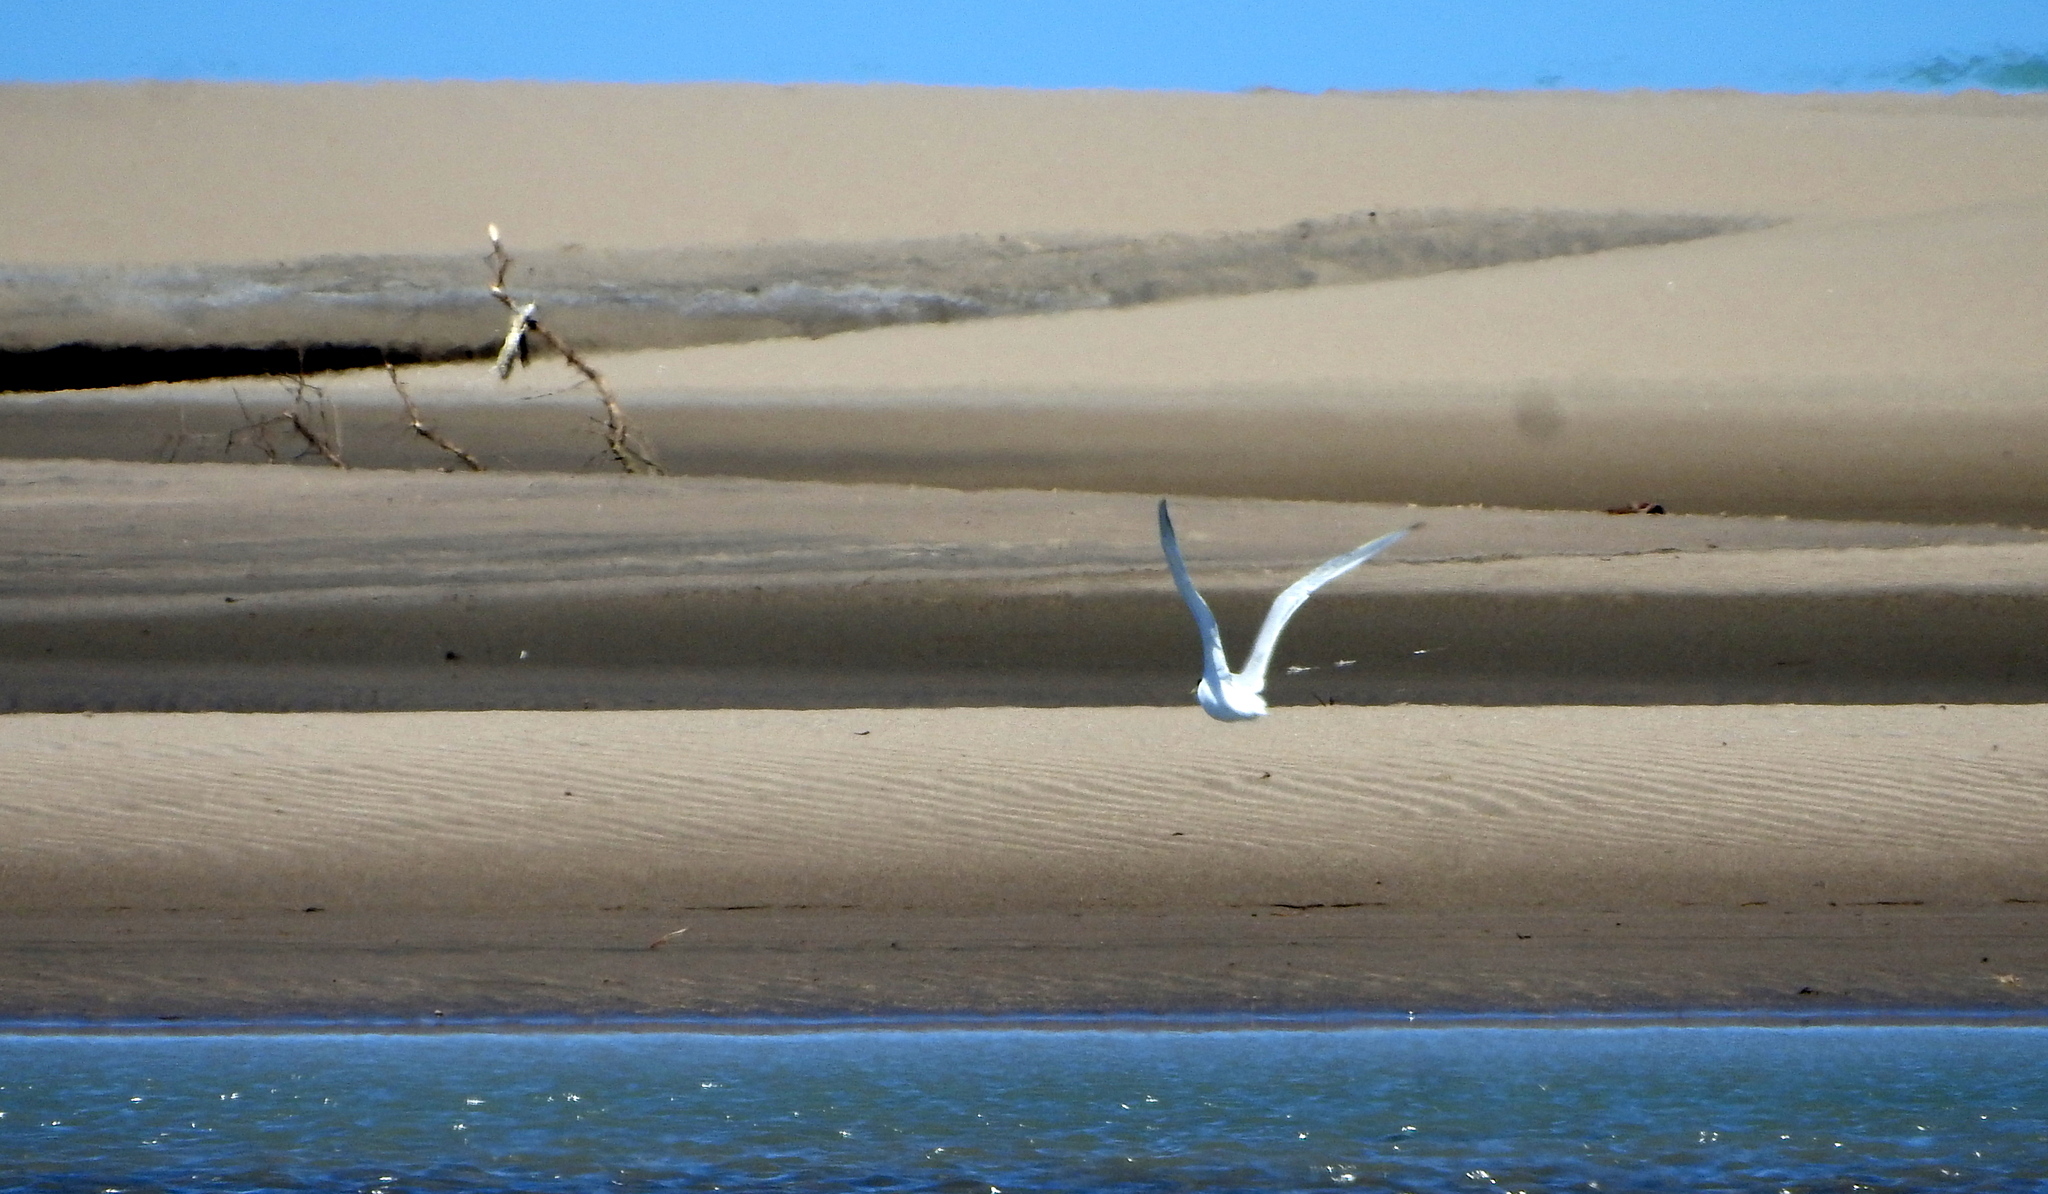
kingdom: Animalia
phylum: Chordata
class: Aves
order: Charadriiformes
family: Laridae
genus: Sterna
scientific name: Sterna trudeaui
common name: Snowy-crowned tern
